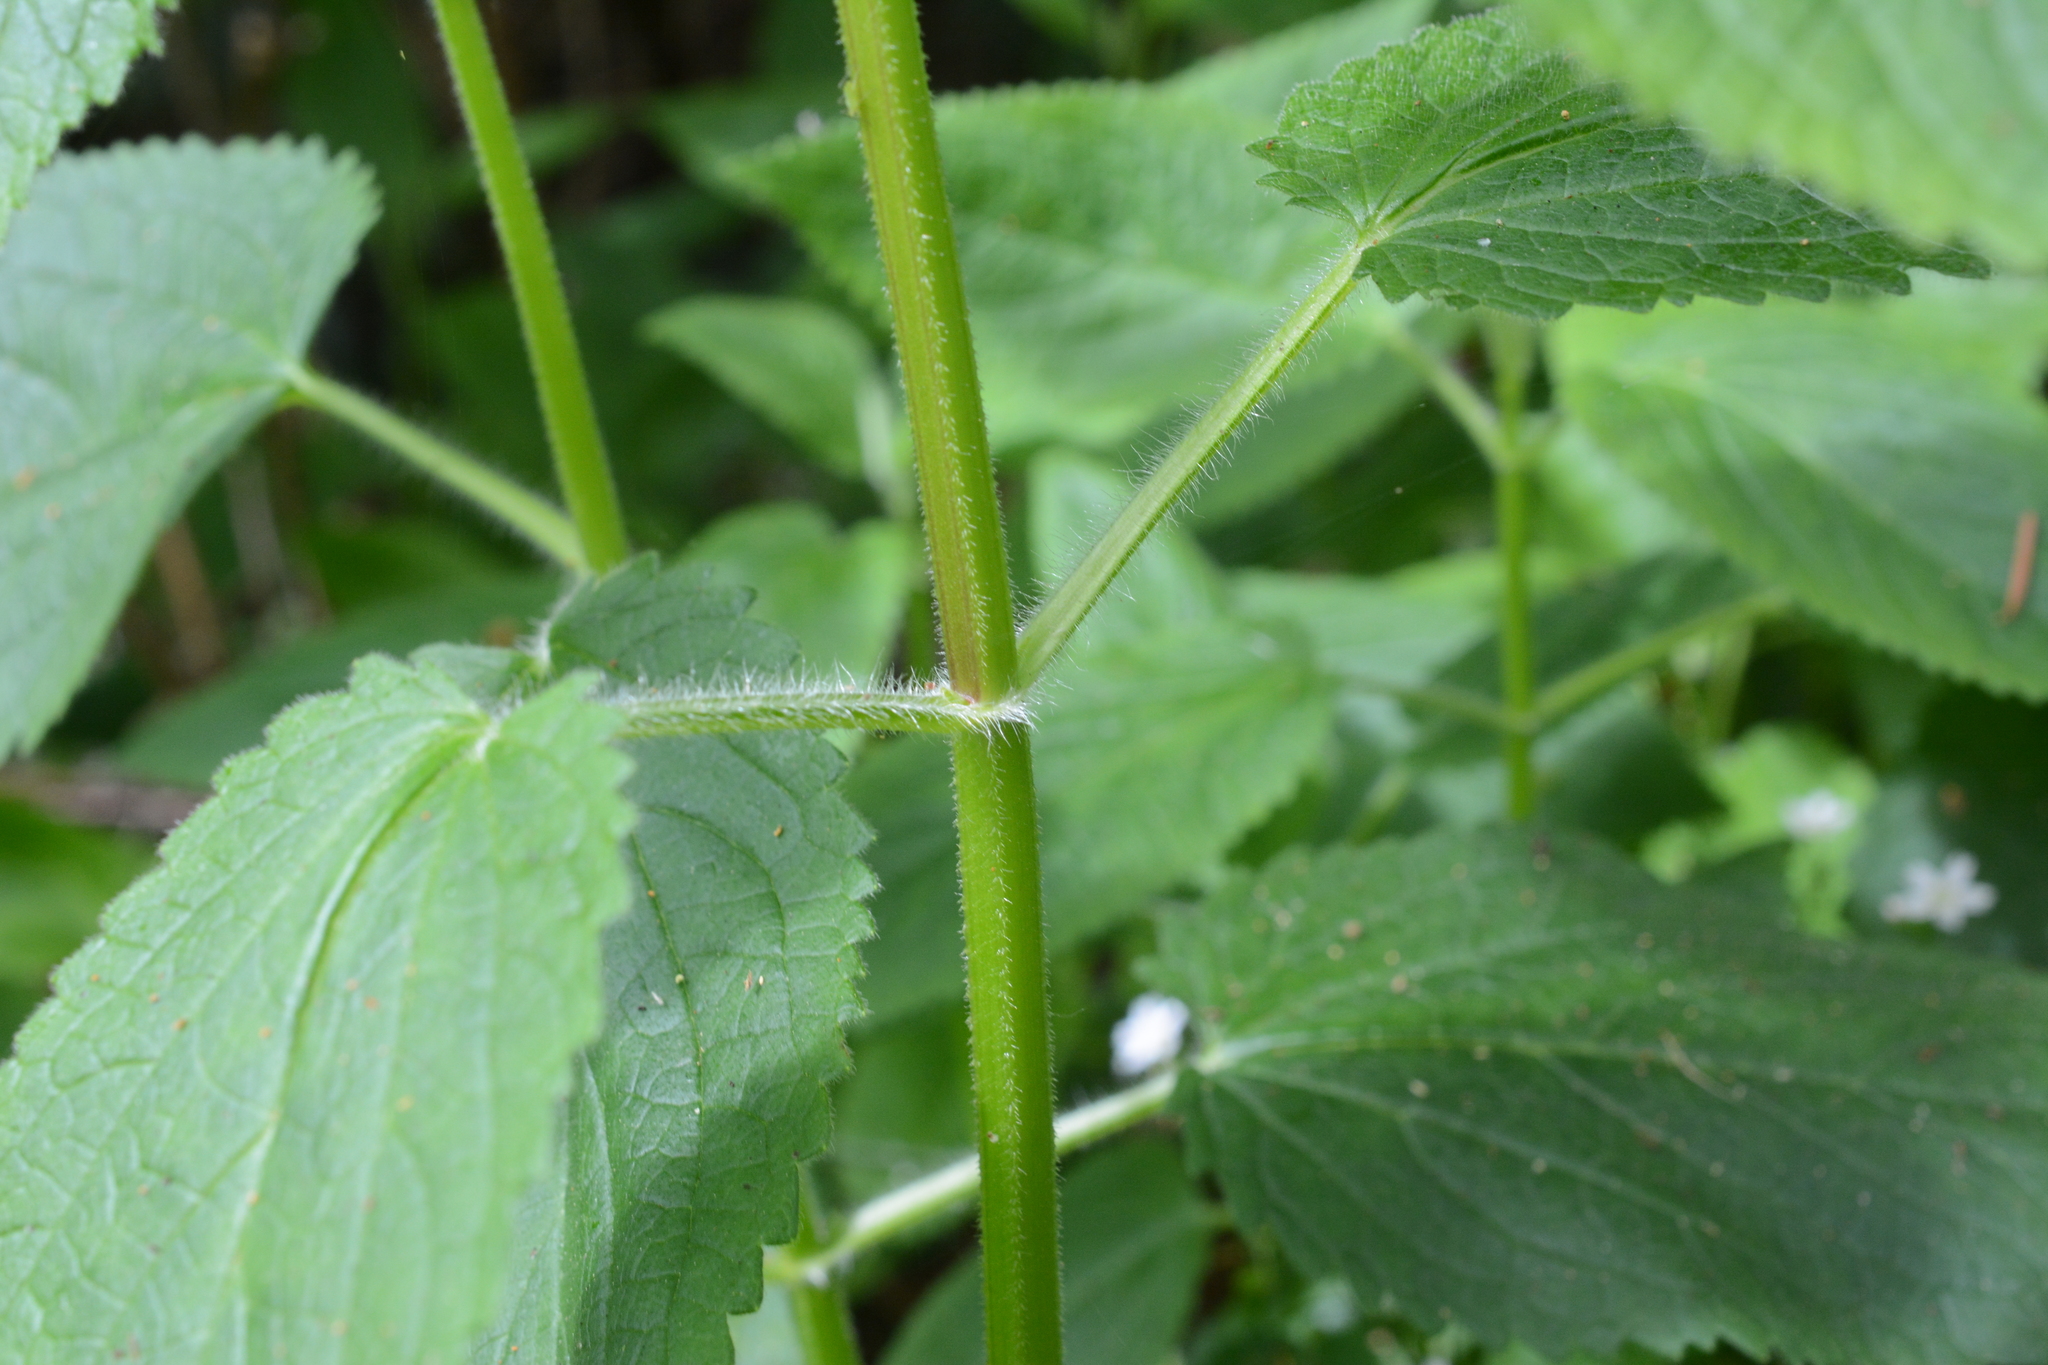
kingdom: Plantae
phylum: Tracheophyta
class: Magnoliopsida
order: Lamiales
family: Lamiaceae
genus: Stachys
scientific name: Stachys chamissonis
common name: Coastal hedge-nettle
